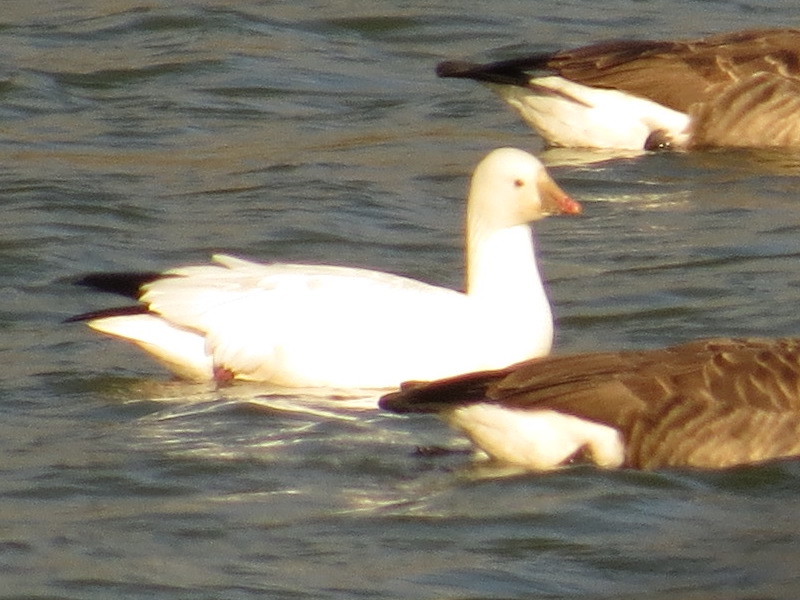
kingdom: Animalia
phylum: Chordata
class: Aves
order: Anseriformes
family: Anatidae
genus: Anser
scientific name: Anser rossii
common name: Ross's goose
